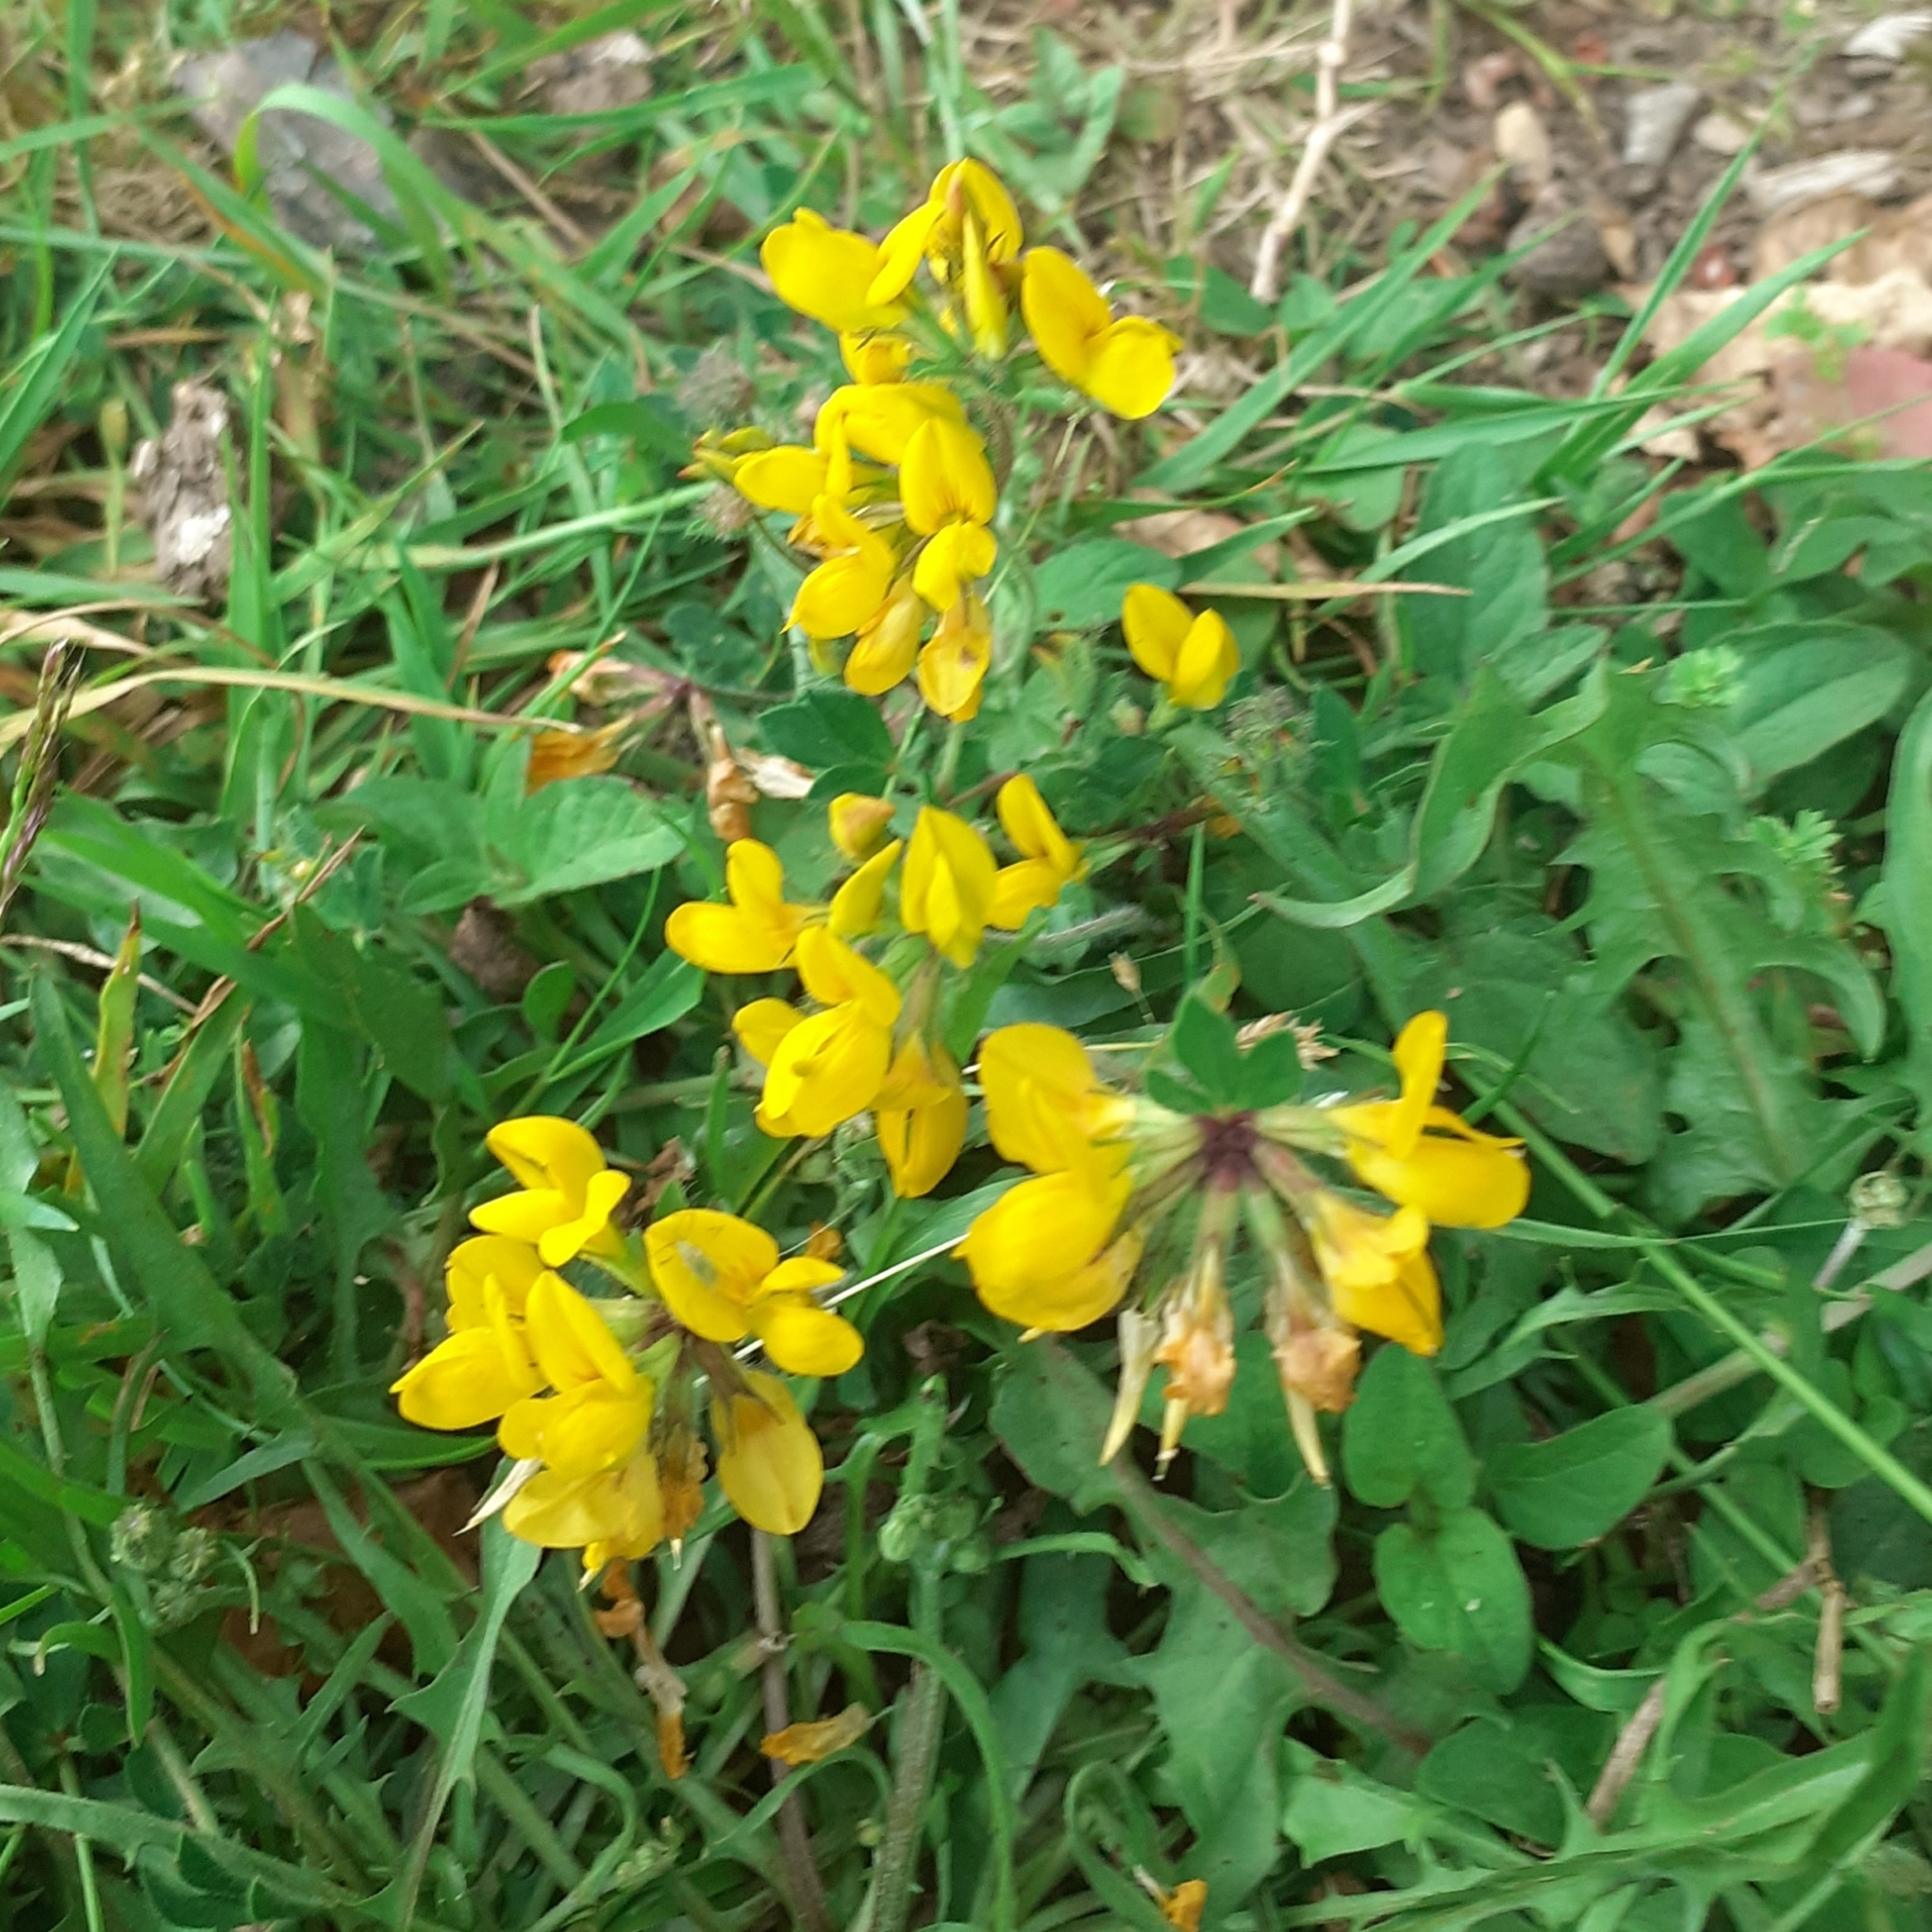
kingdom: Plantae
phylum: Tracheophyta
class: Magnoliopsida
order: Fabales
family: Fabaceae
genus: Lotus
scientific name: Lotus pedunculatus
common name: Greater birdsfoot-trefoil
